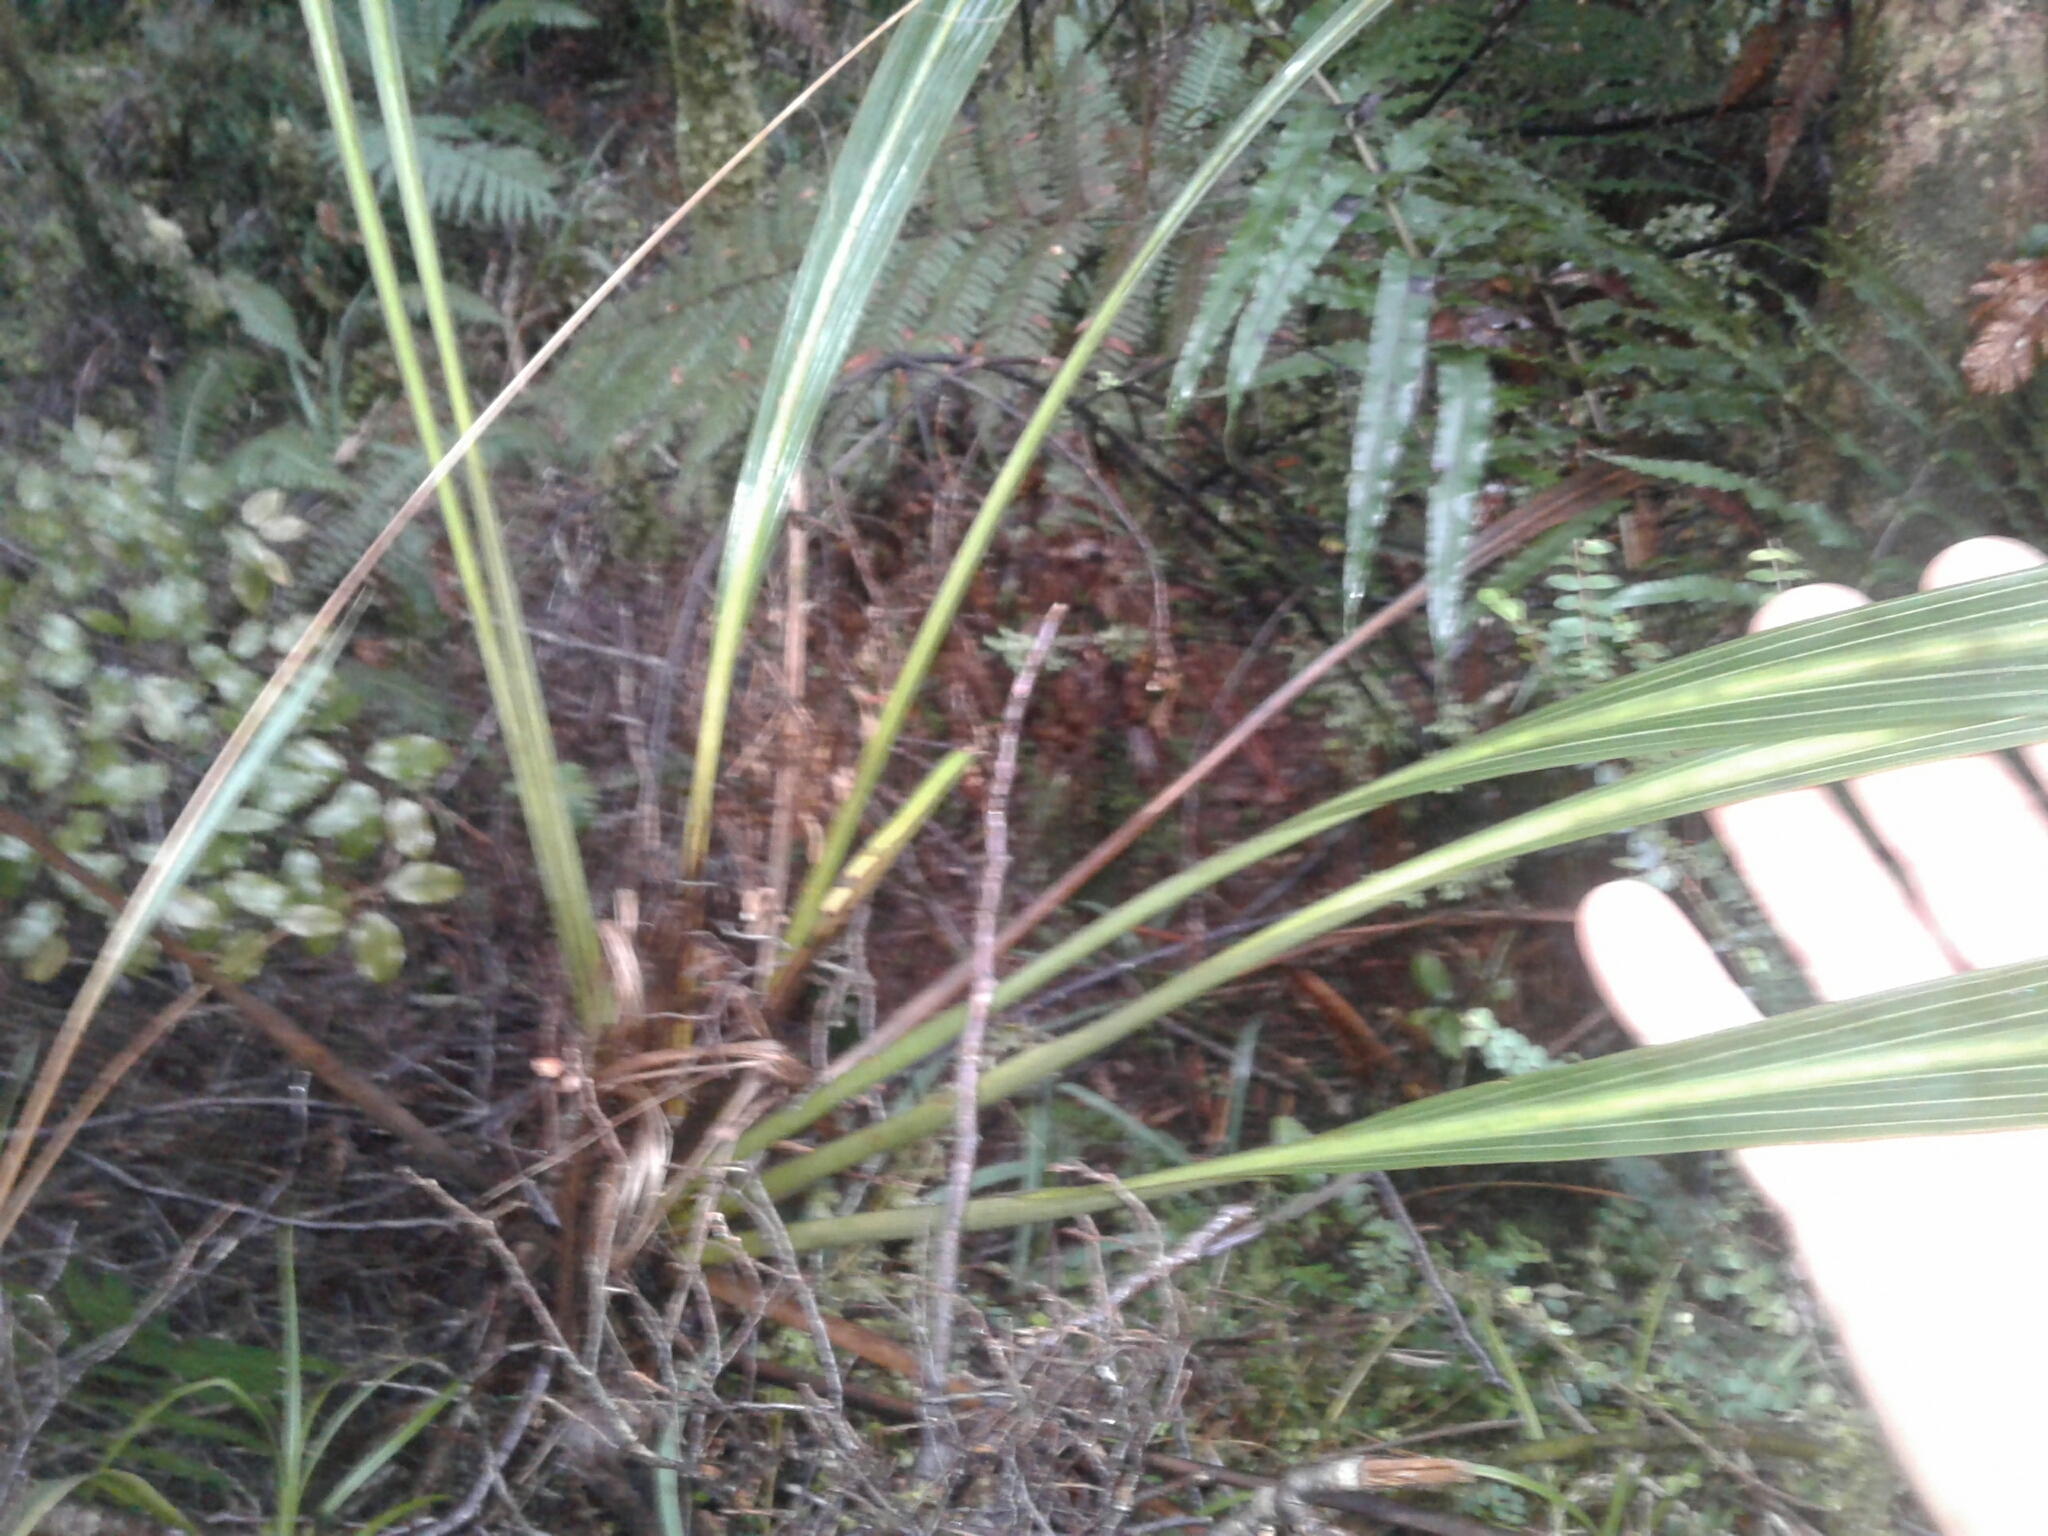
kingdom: Plantae
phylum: Tracheophyta
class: Liliopsida
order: Asparagales
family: Asparagaceae
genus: Cordyline
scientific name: Cordyline banksii
